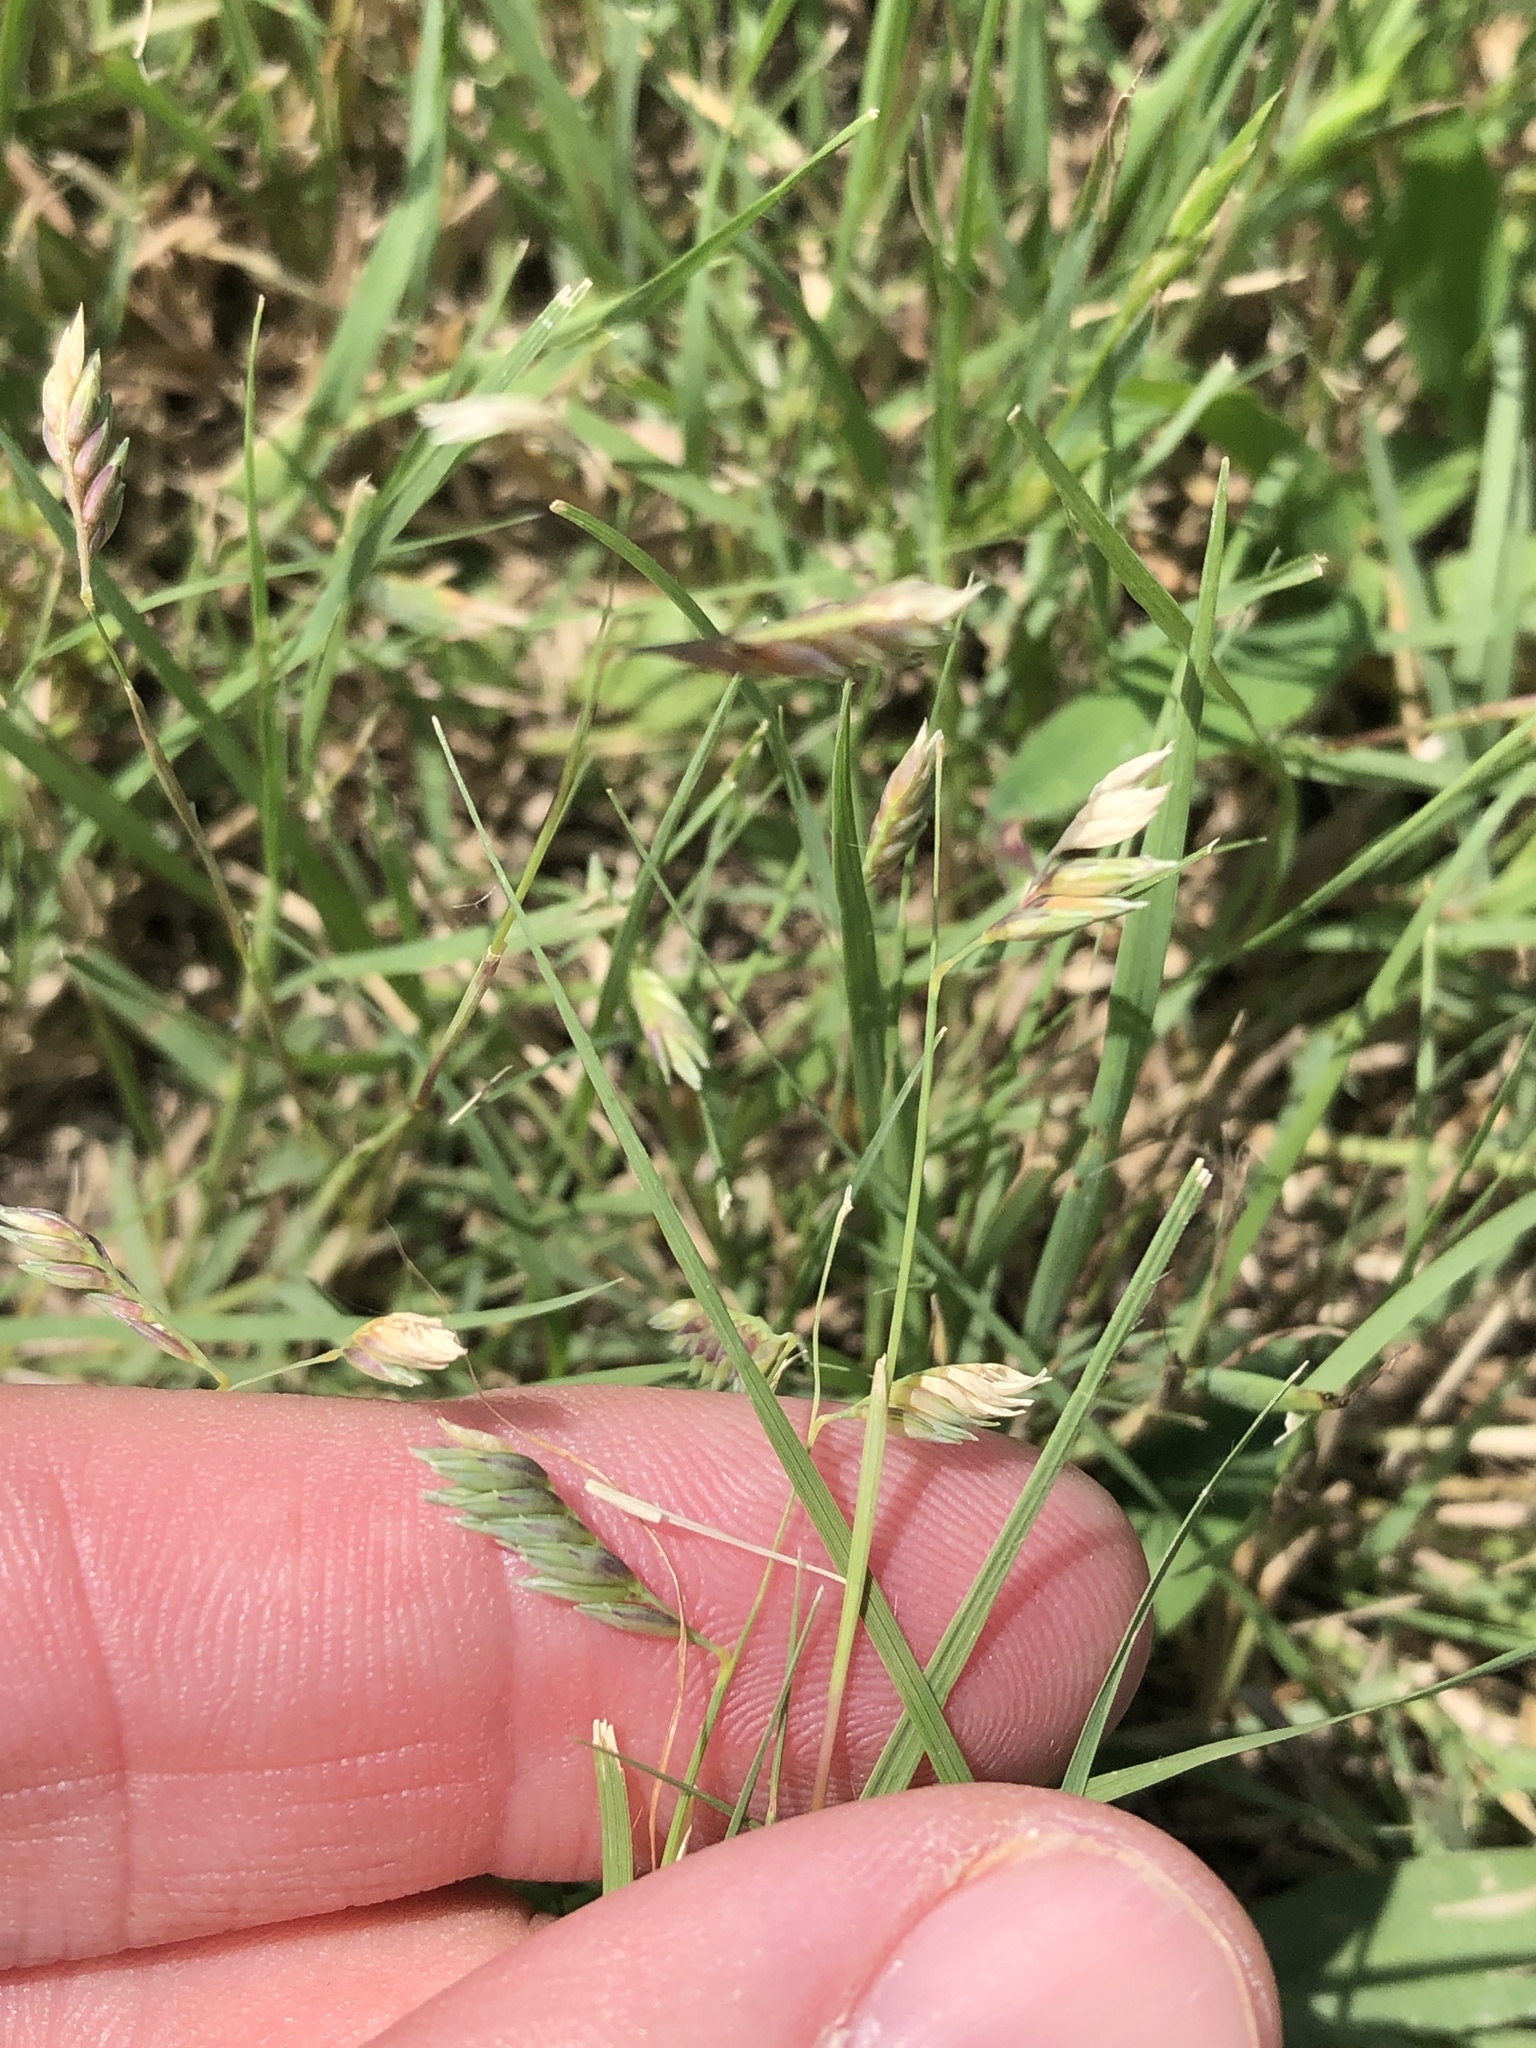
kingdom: Plantae
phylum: Tracheophyta
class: Liliopsida
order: Poales
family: Poaceae
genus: Bouteloua
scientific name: Bouteloua dactyloides
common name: Buffalo grass
